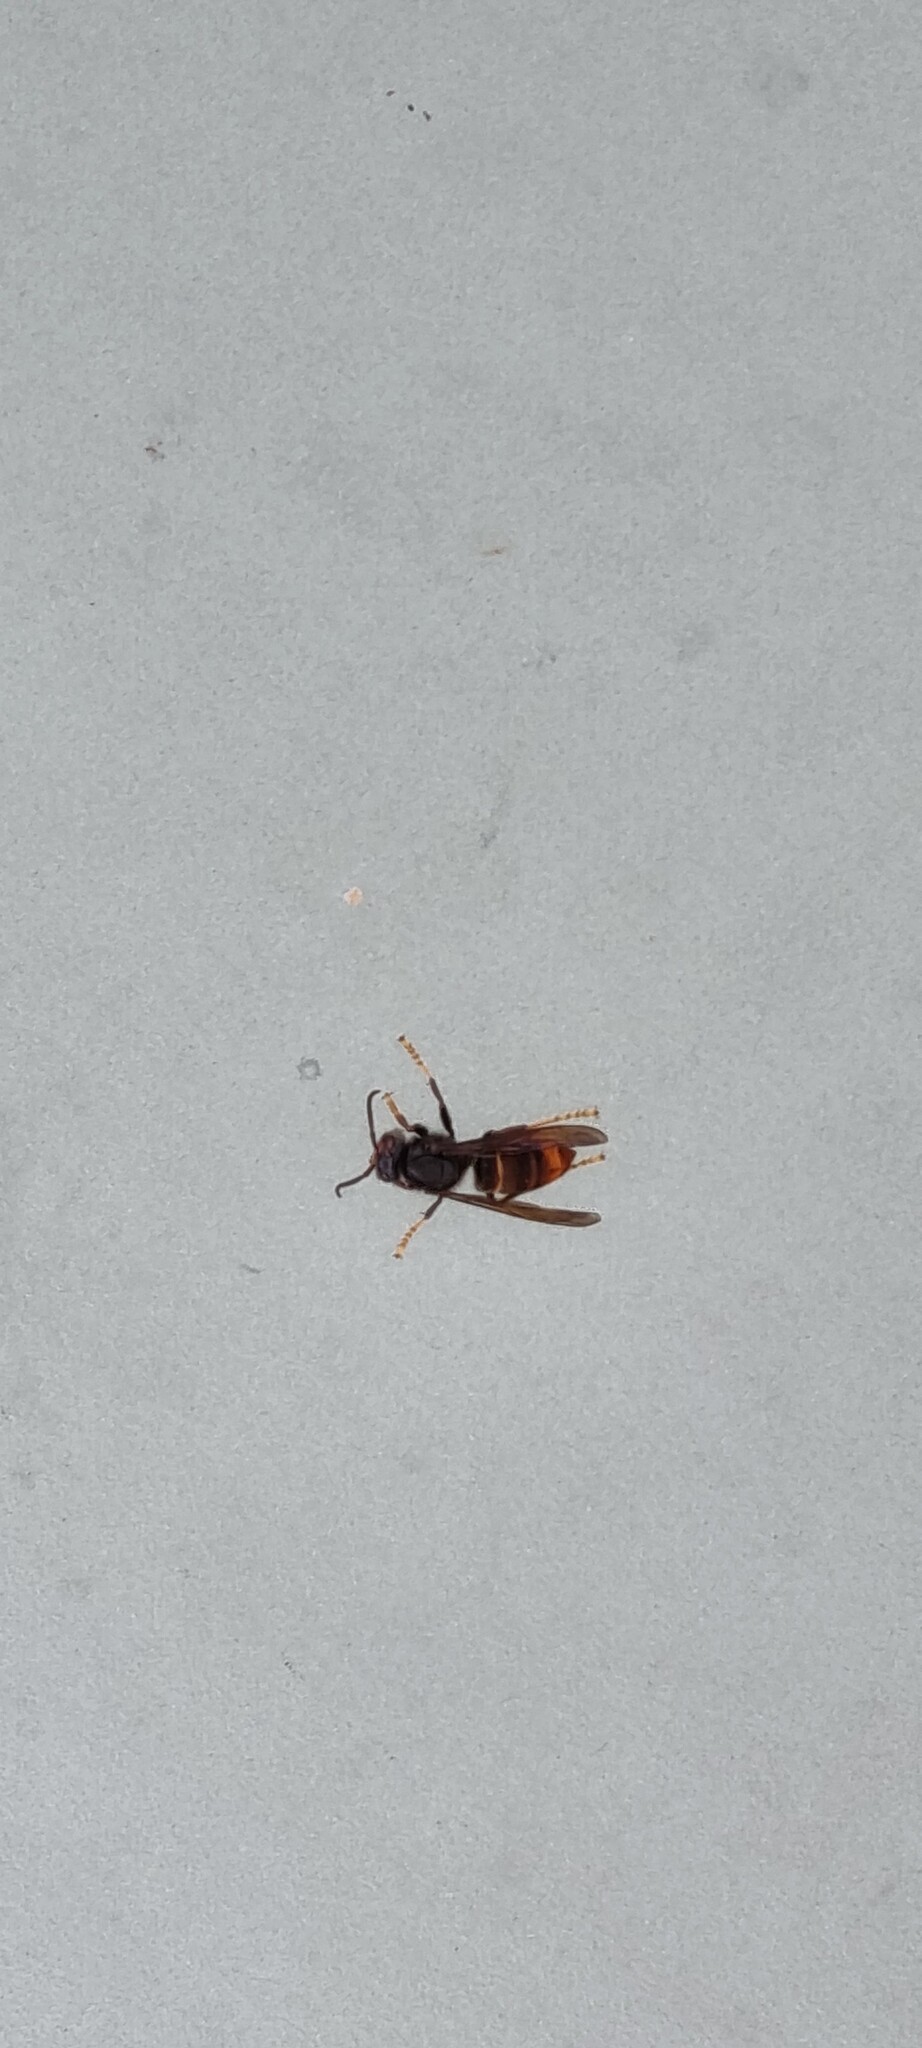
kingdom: Animalia
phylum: Arthropoda
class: Insecta
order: Hymenoptera
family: Vespidae
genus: Vespa
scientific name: Vespa velutina
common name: Asian hornet
